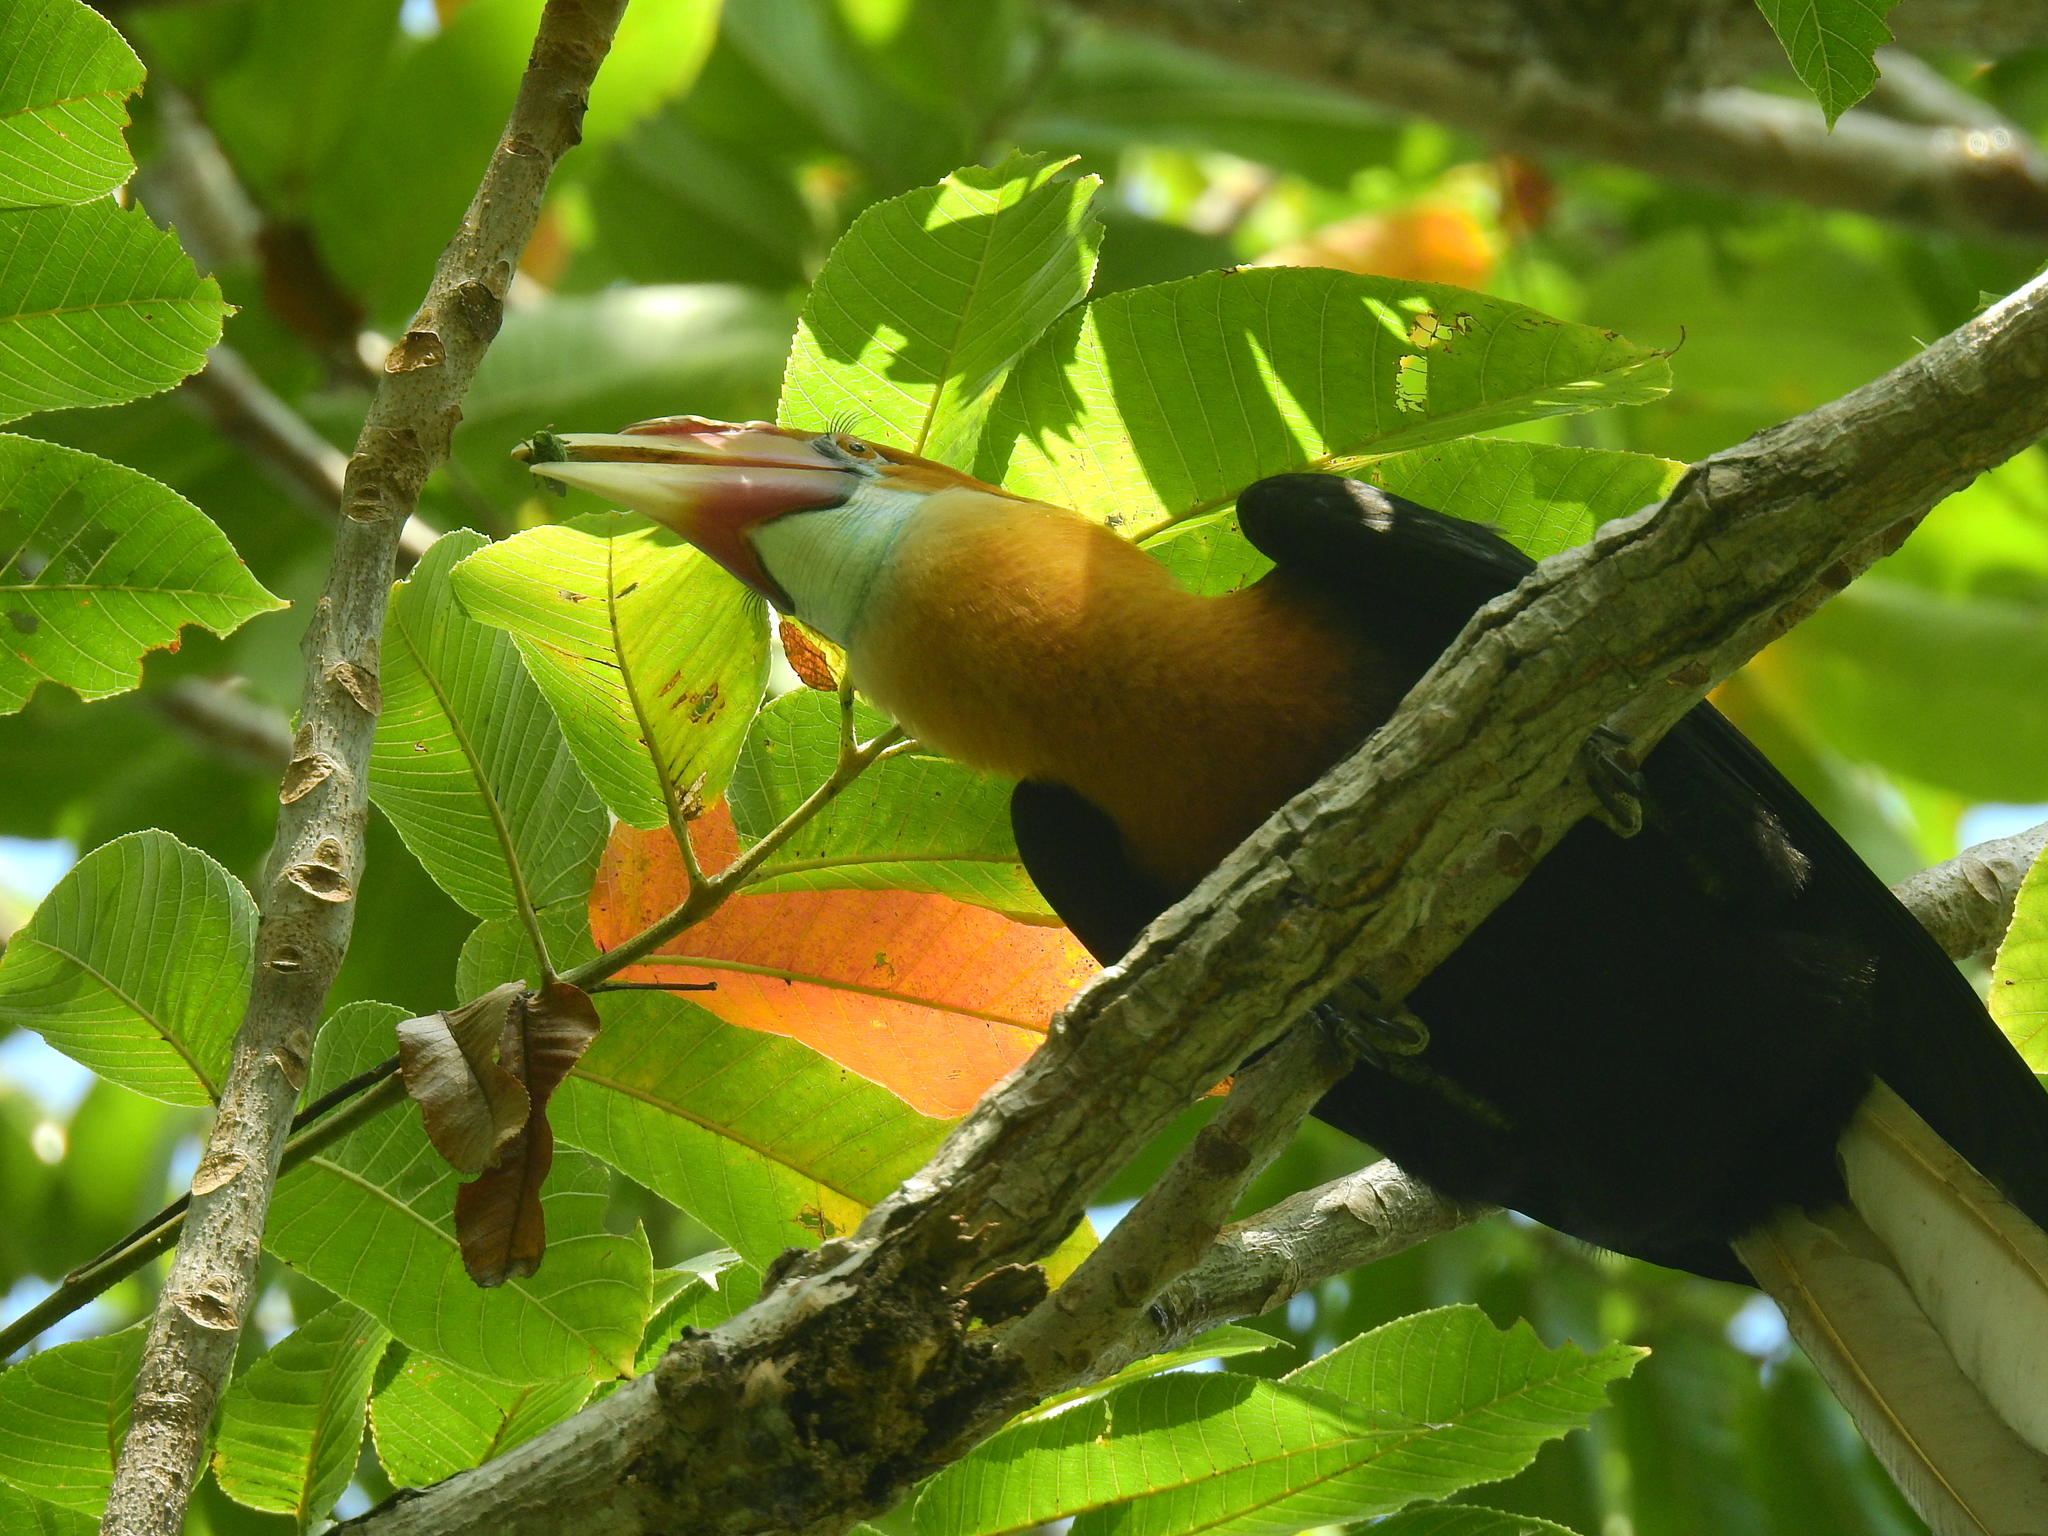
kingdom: Animalia
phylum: Chordata
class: Aves
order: Bucerotiformes
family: Bucerotidae
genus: Rhyticeros
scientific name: Rhyticeros narcondami
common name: Narcondam hornbill
